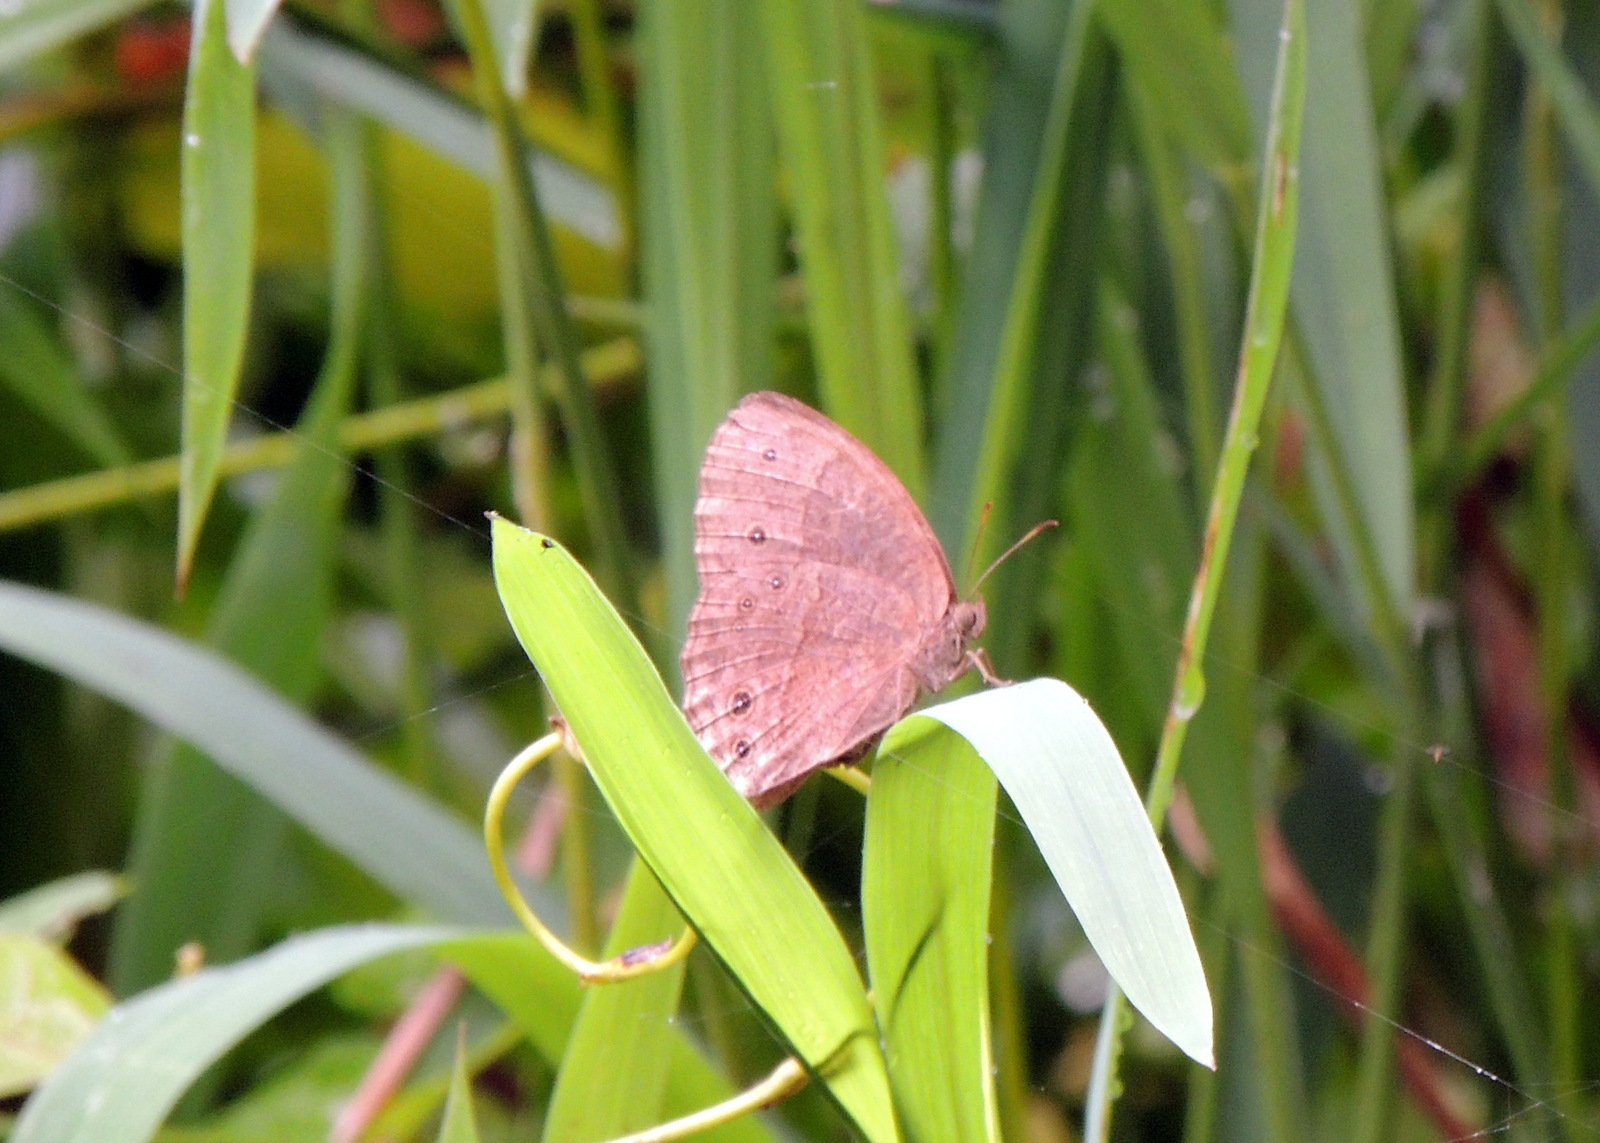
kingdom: Animalia
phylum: Arthropoda
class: Insecta
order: Lepidoptera
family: Nymphalidae
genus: Mycalesis
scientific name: Mycalesis sandace
